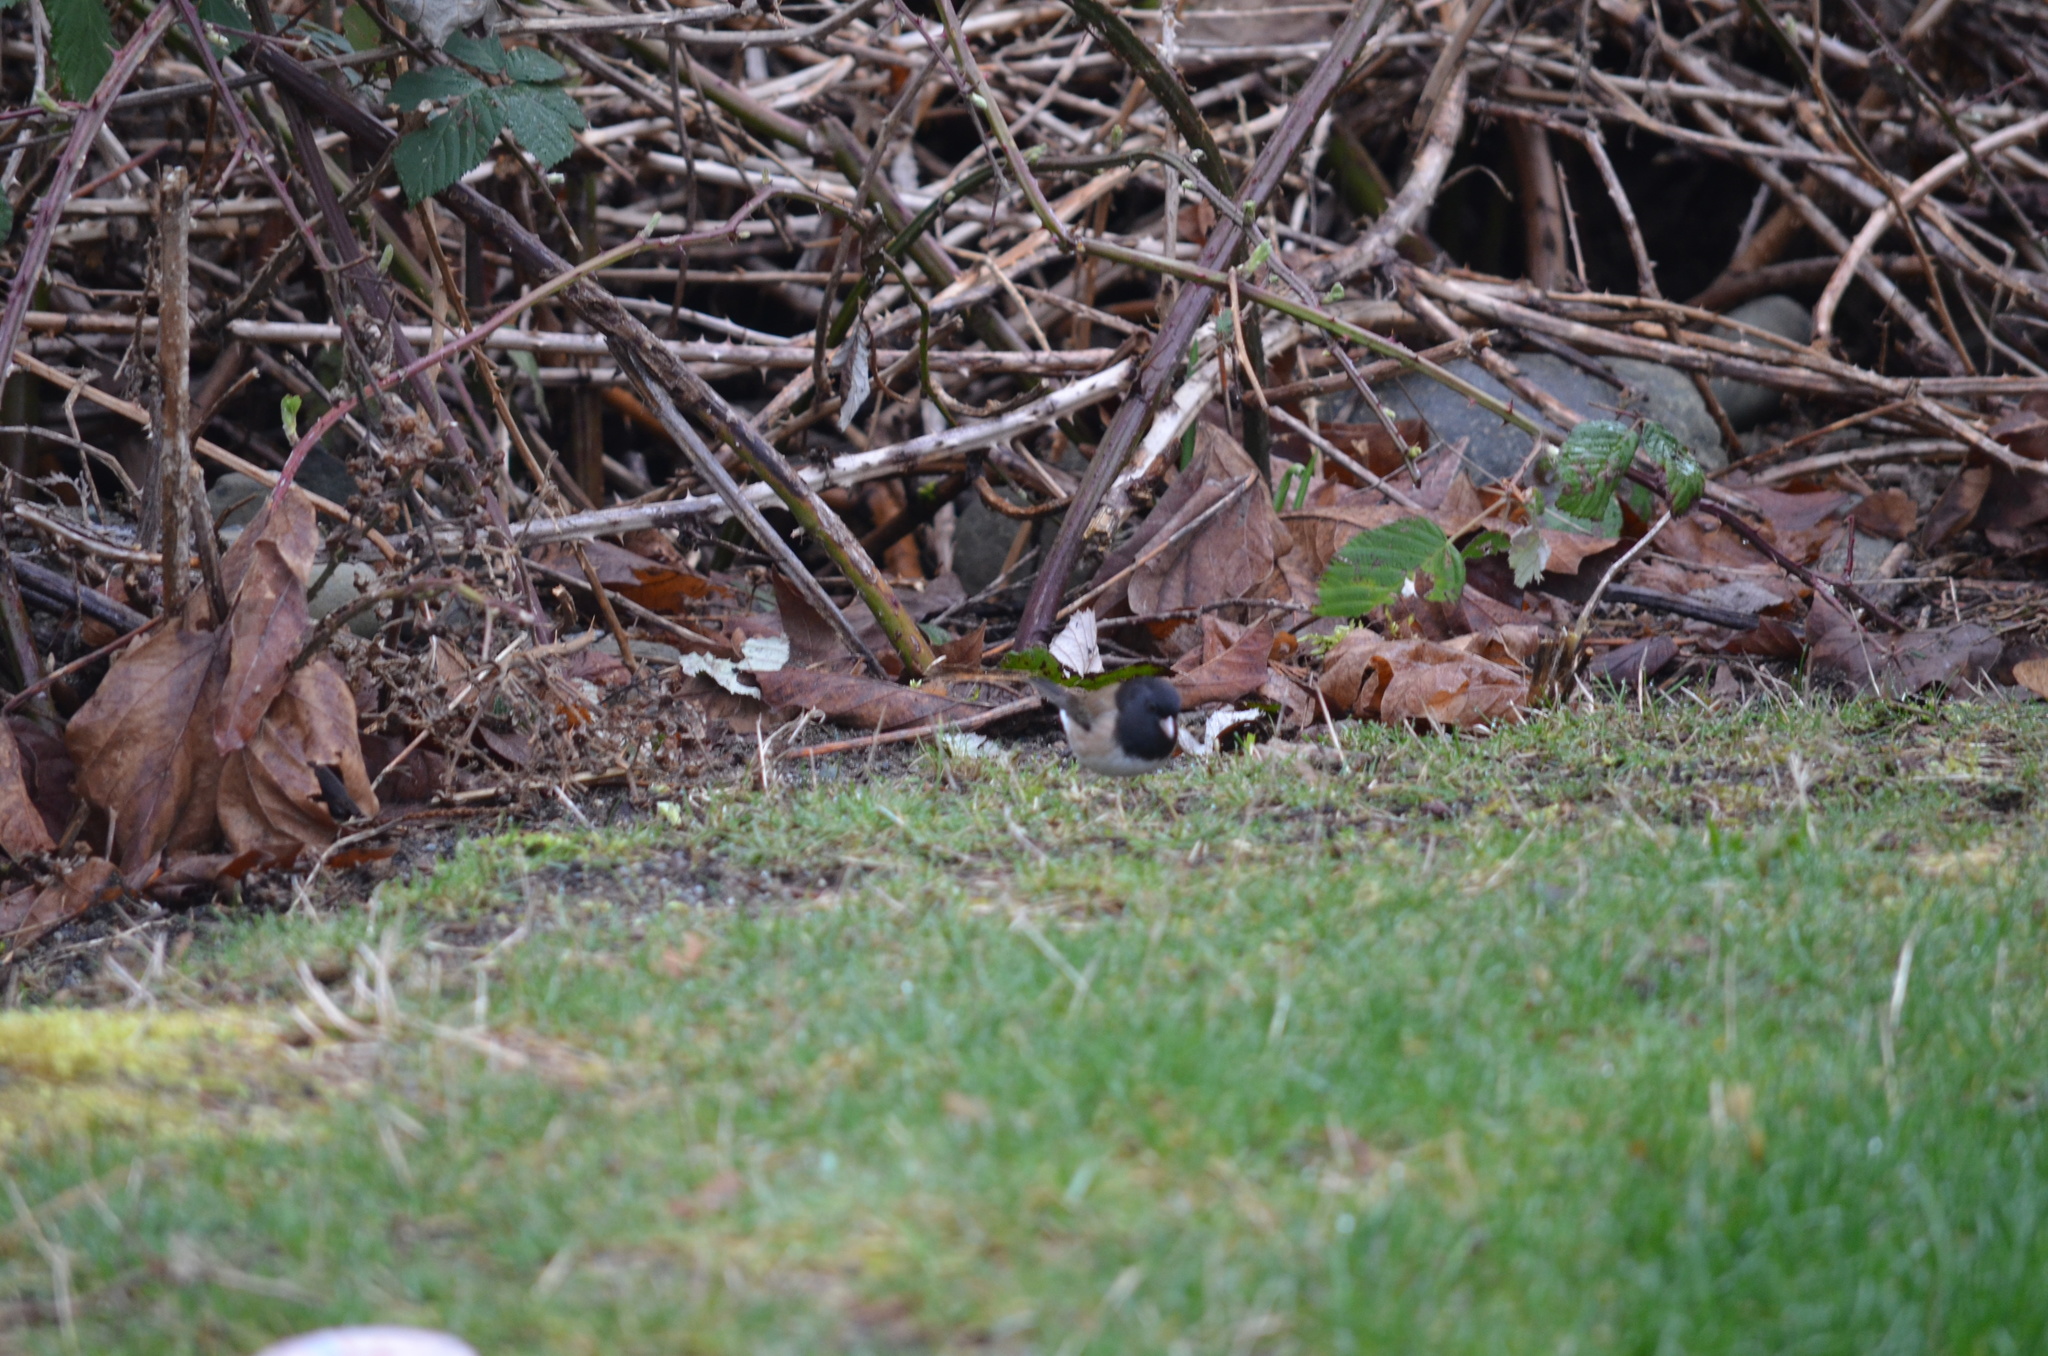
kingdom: Animalia
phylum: Chordata
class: Aves
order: Passeriformes
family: Passerellidae
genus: Junco
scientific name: Junco hyemalis
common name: Dark-eyed junco
